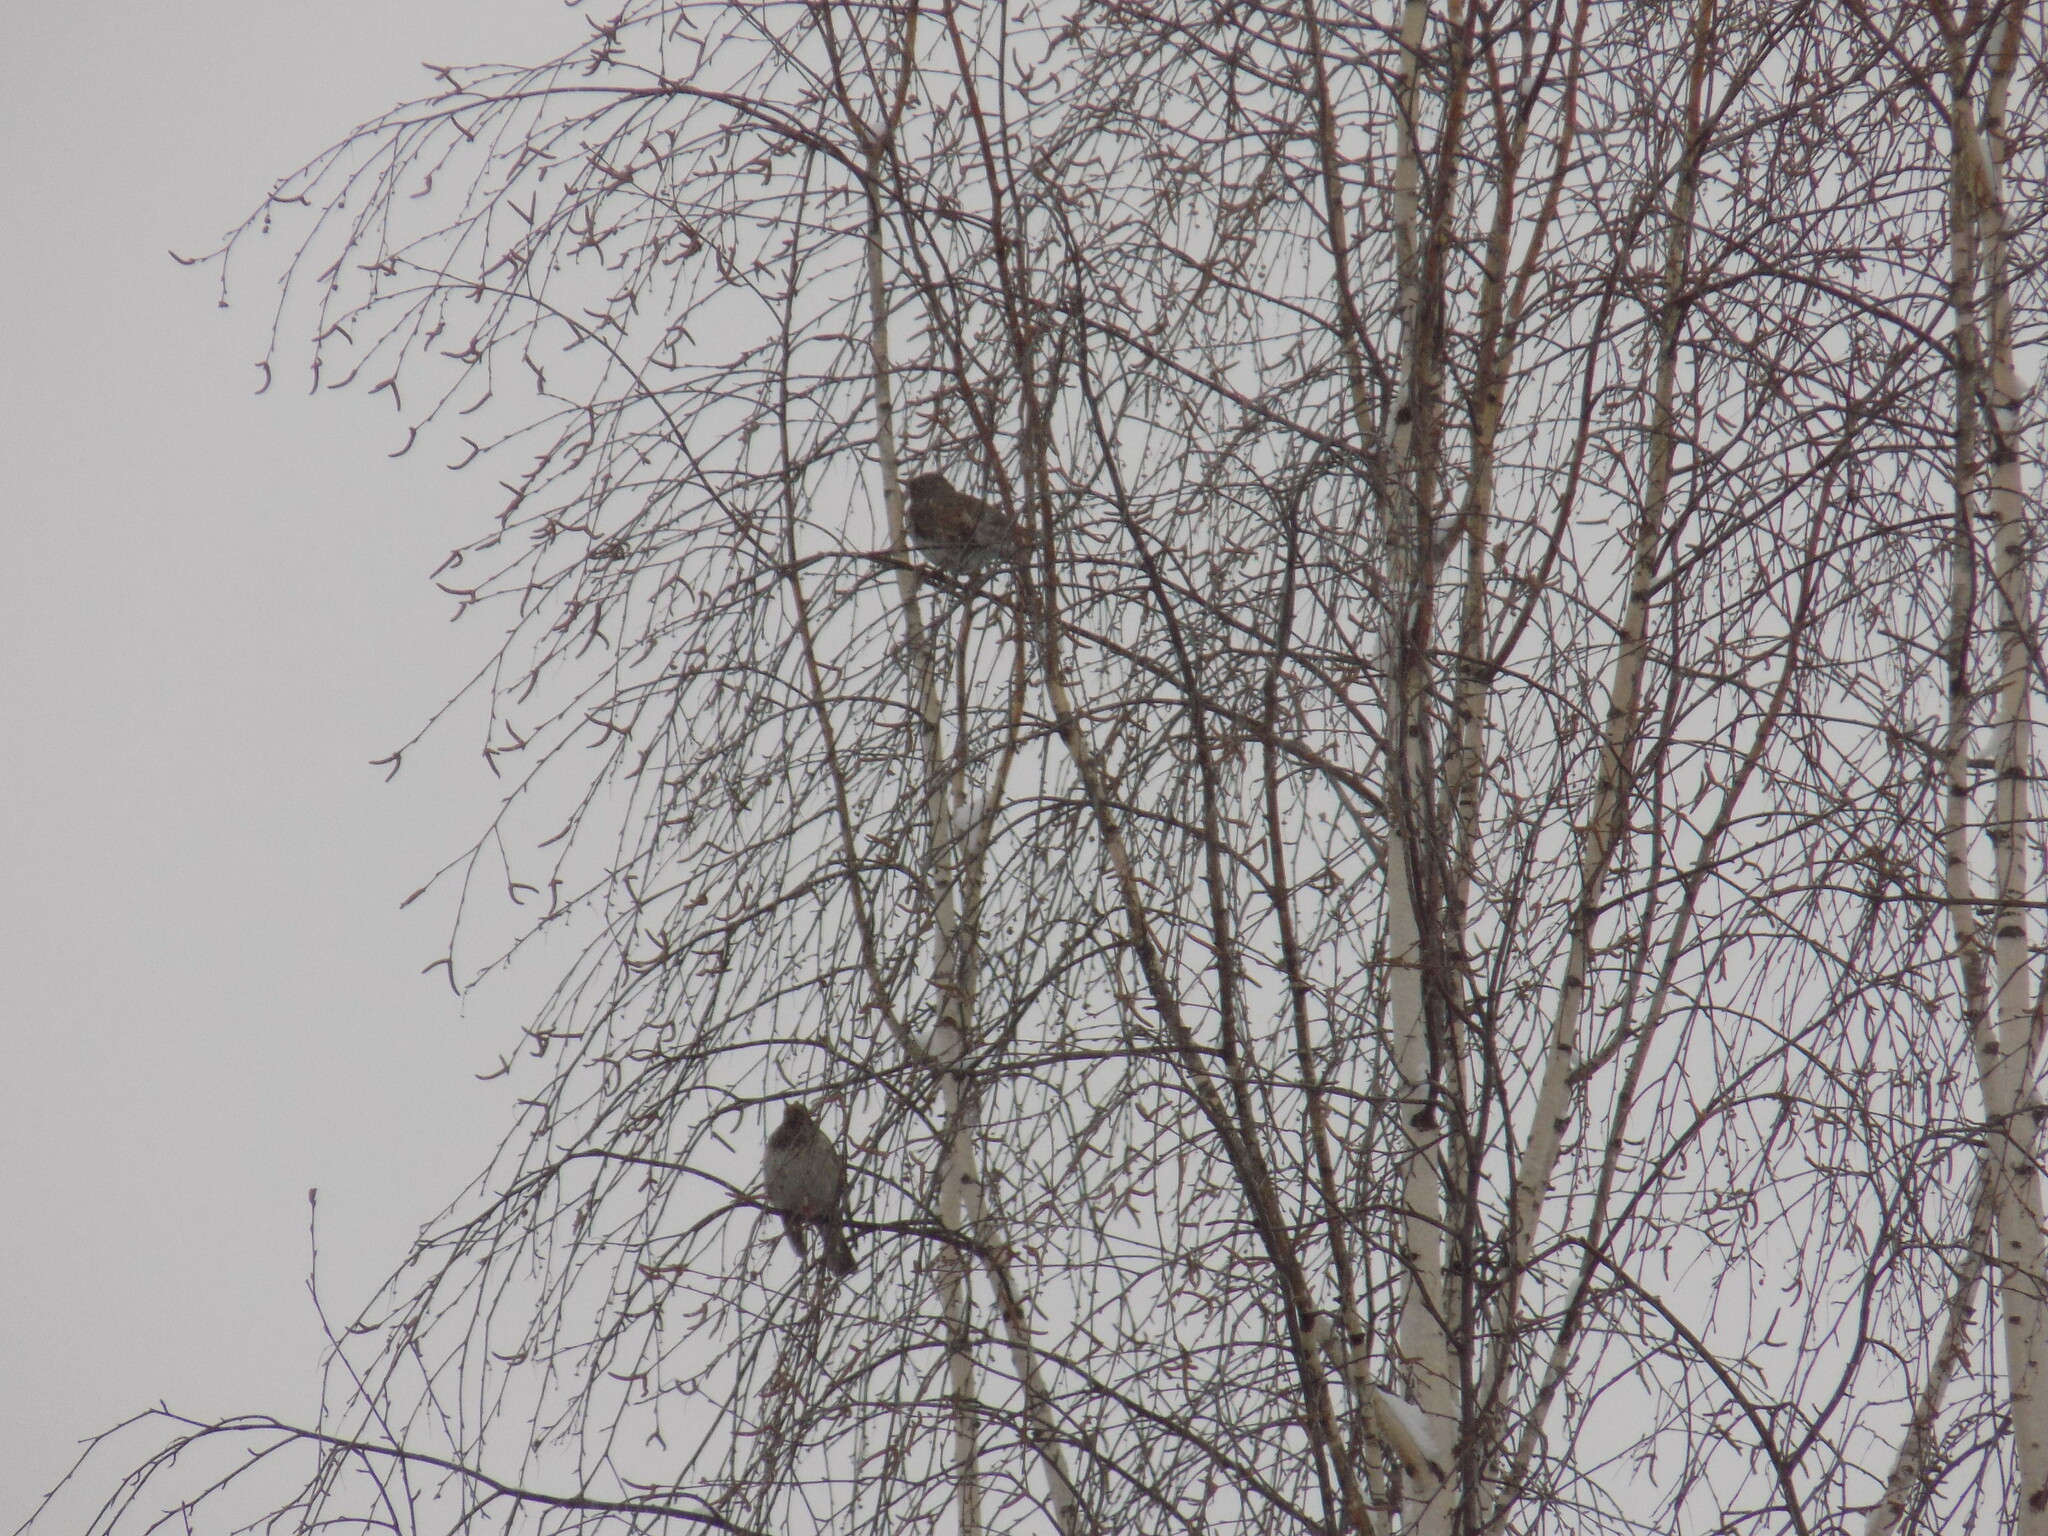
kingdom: Animalia
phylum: Chordata
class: Aves
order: Passeriformes
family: Turdidae
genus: Turdus
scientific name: Turdus atrogularis
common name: Black-throated thrush
